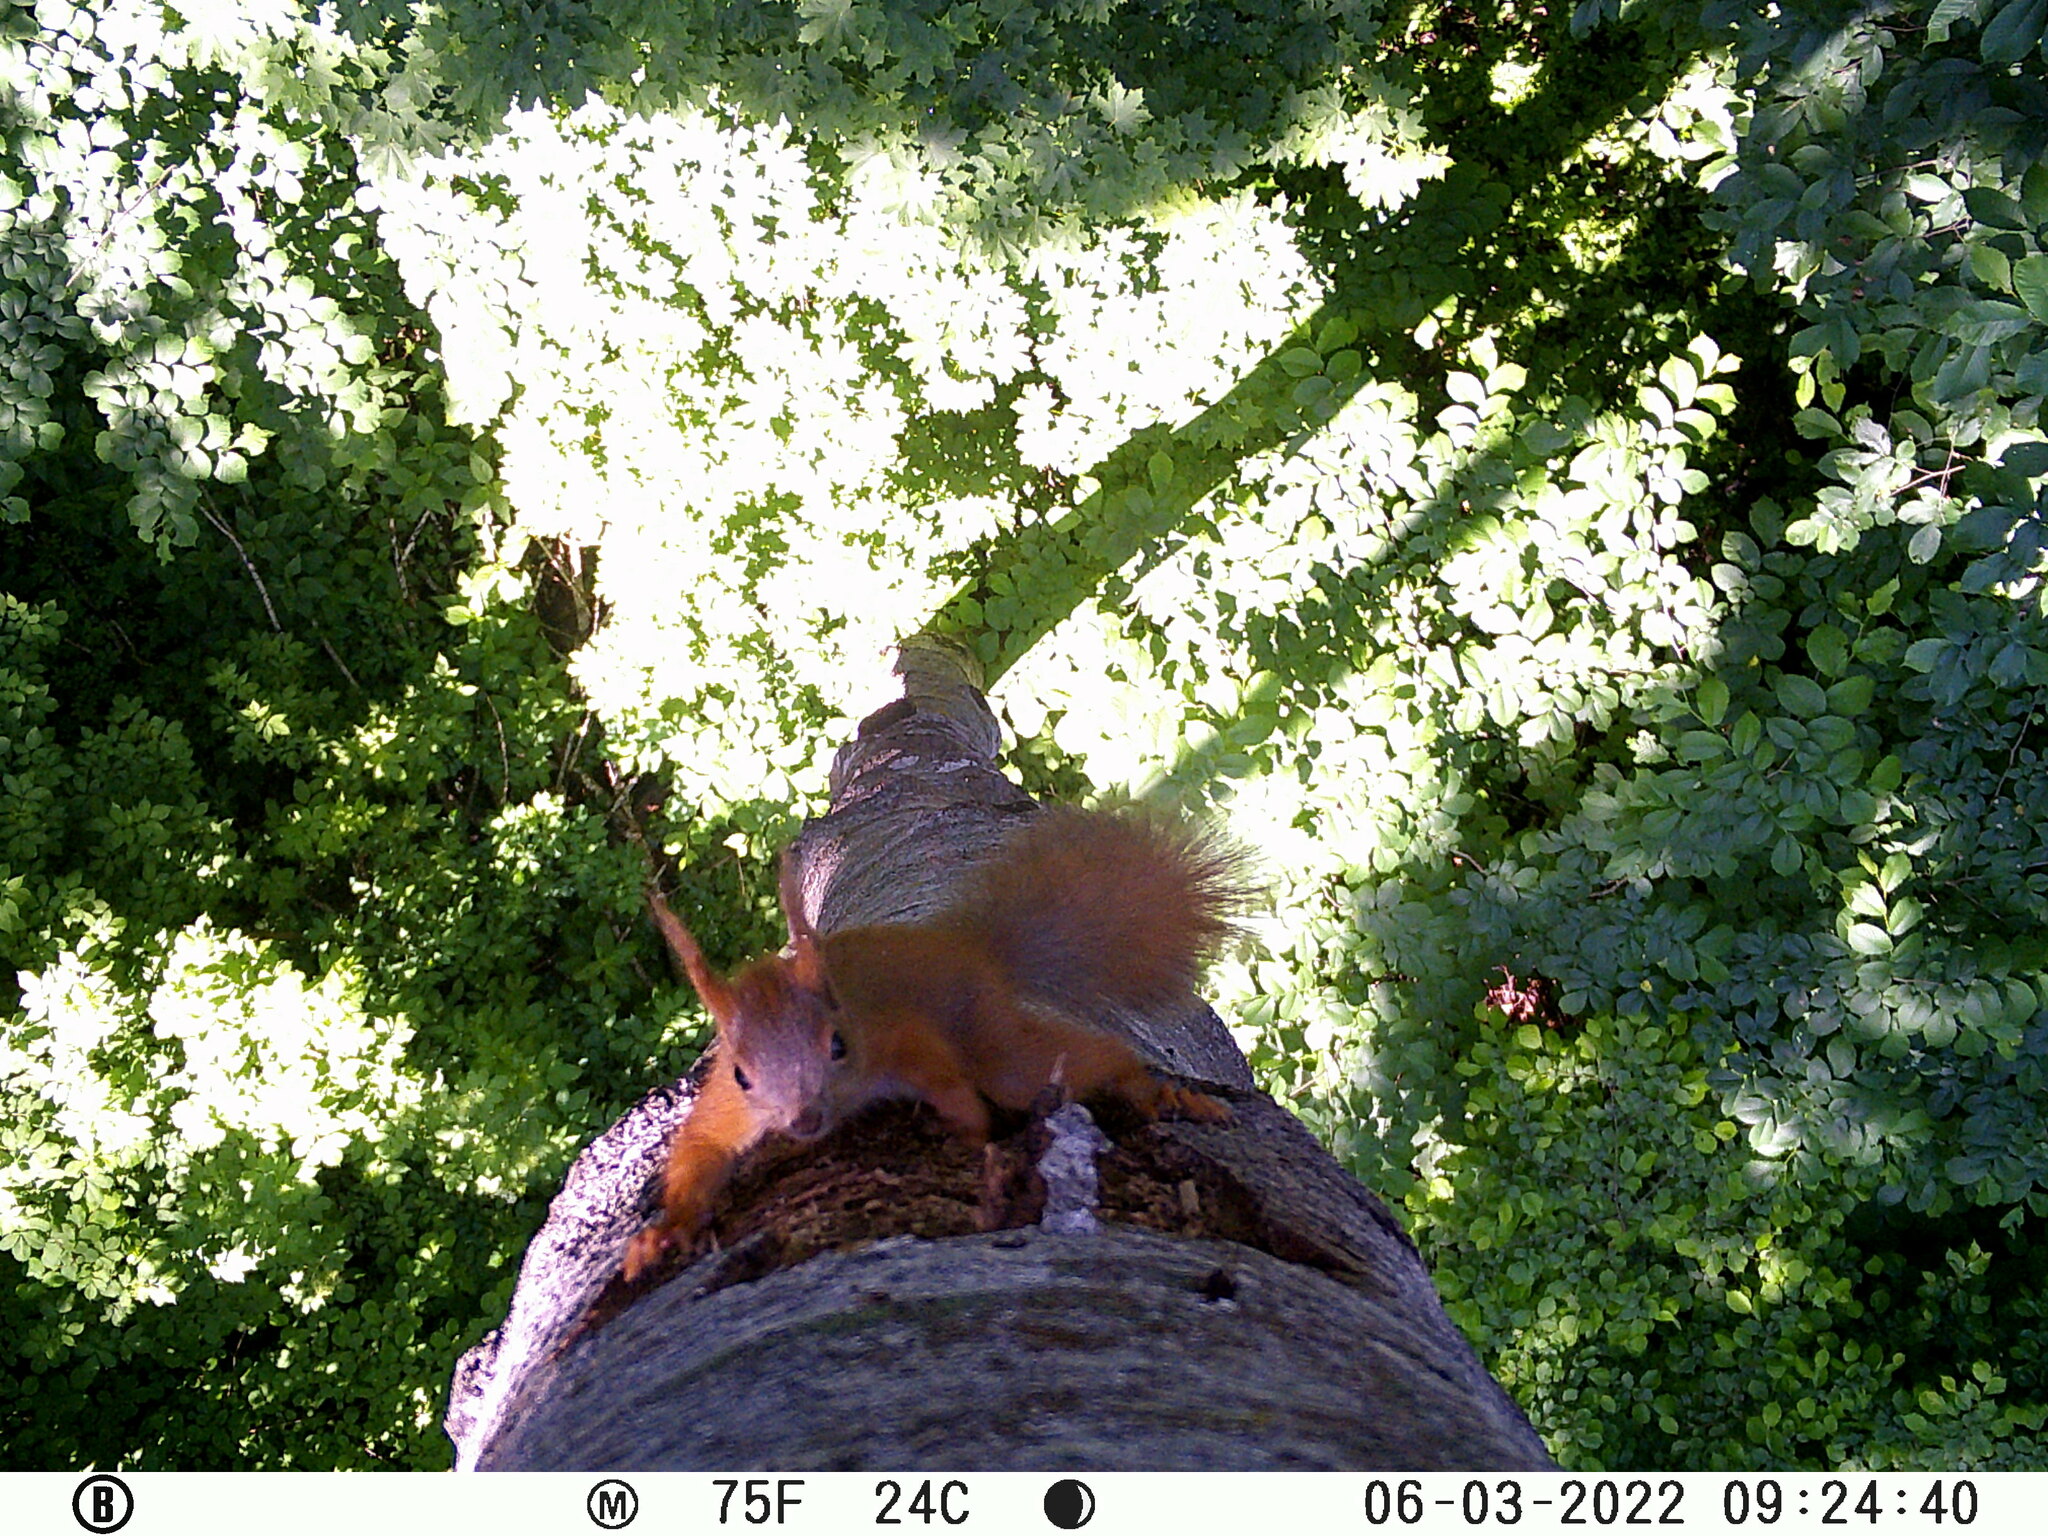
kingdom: Animalia
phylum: Chordata
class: Mammalia
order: Rodentia
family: Sciuridae
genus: Sciurus
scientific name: Sciurus vulgaris
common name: Eurasian red squirrel
